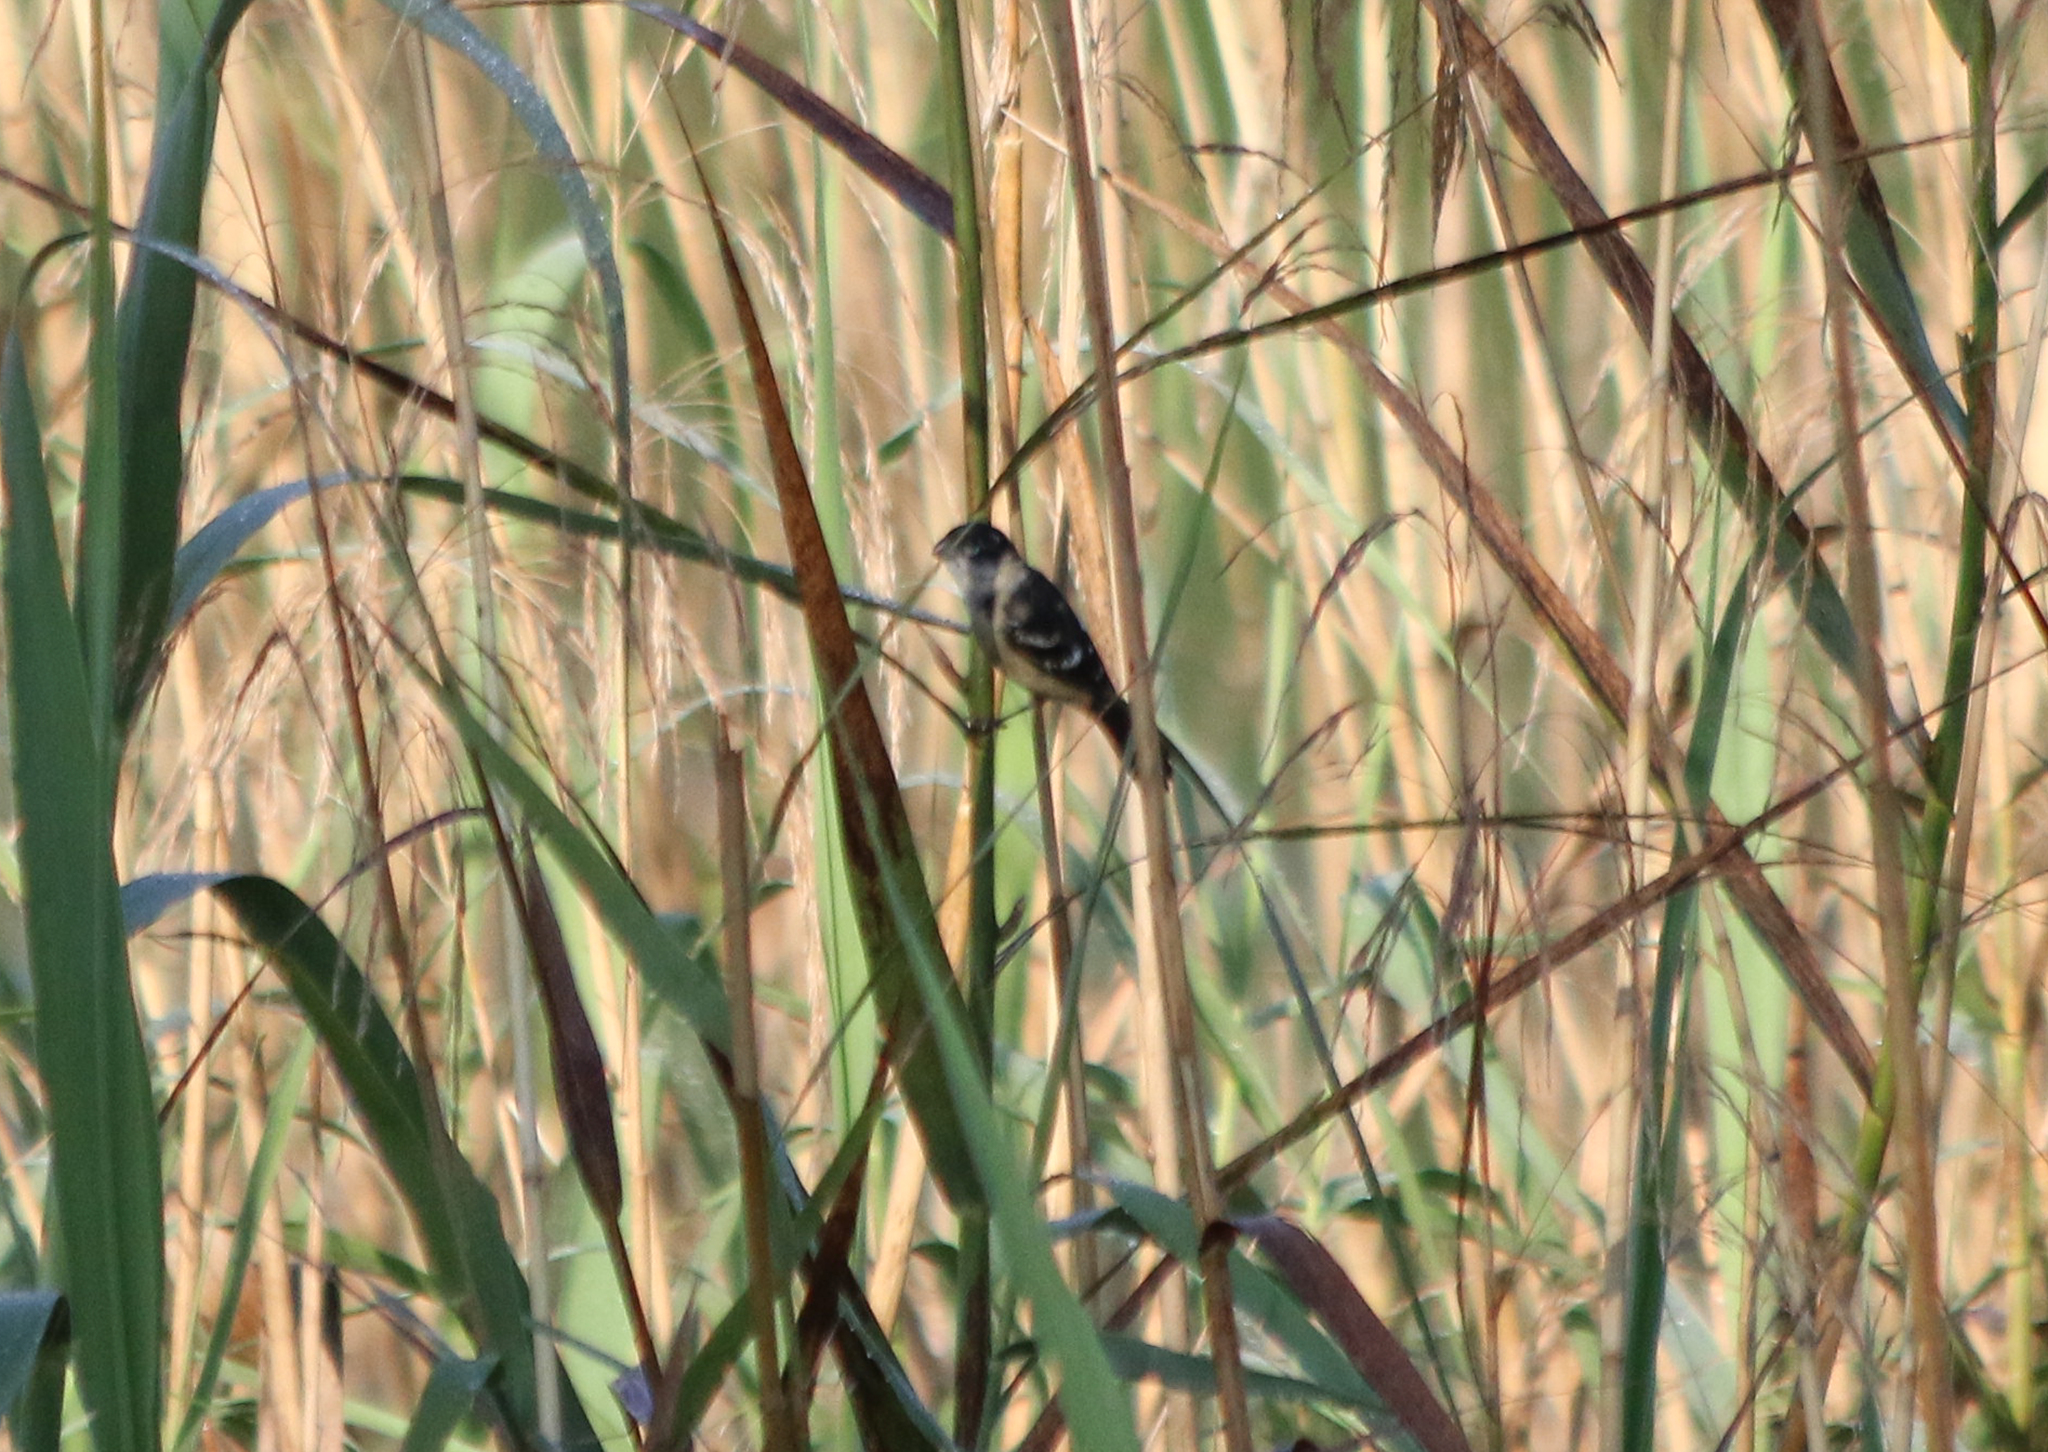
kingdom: Animalia
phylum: Chordata
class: Aves
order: Passeriformes
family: Thraupidae
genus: Sporophila
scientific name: Sporophila morelleti
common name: Morelet's seedeater
